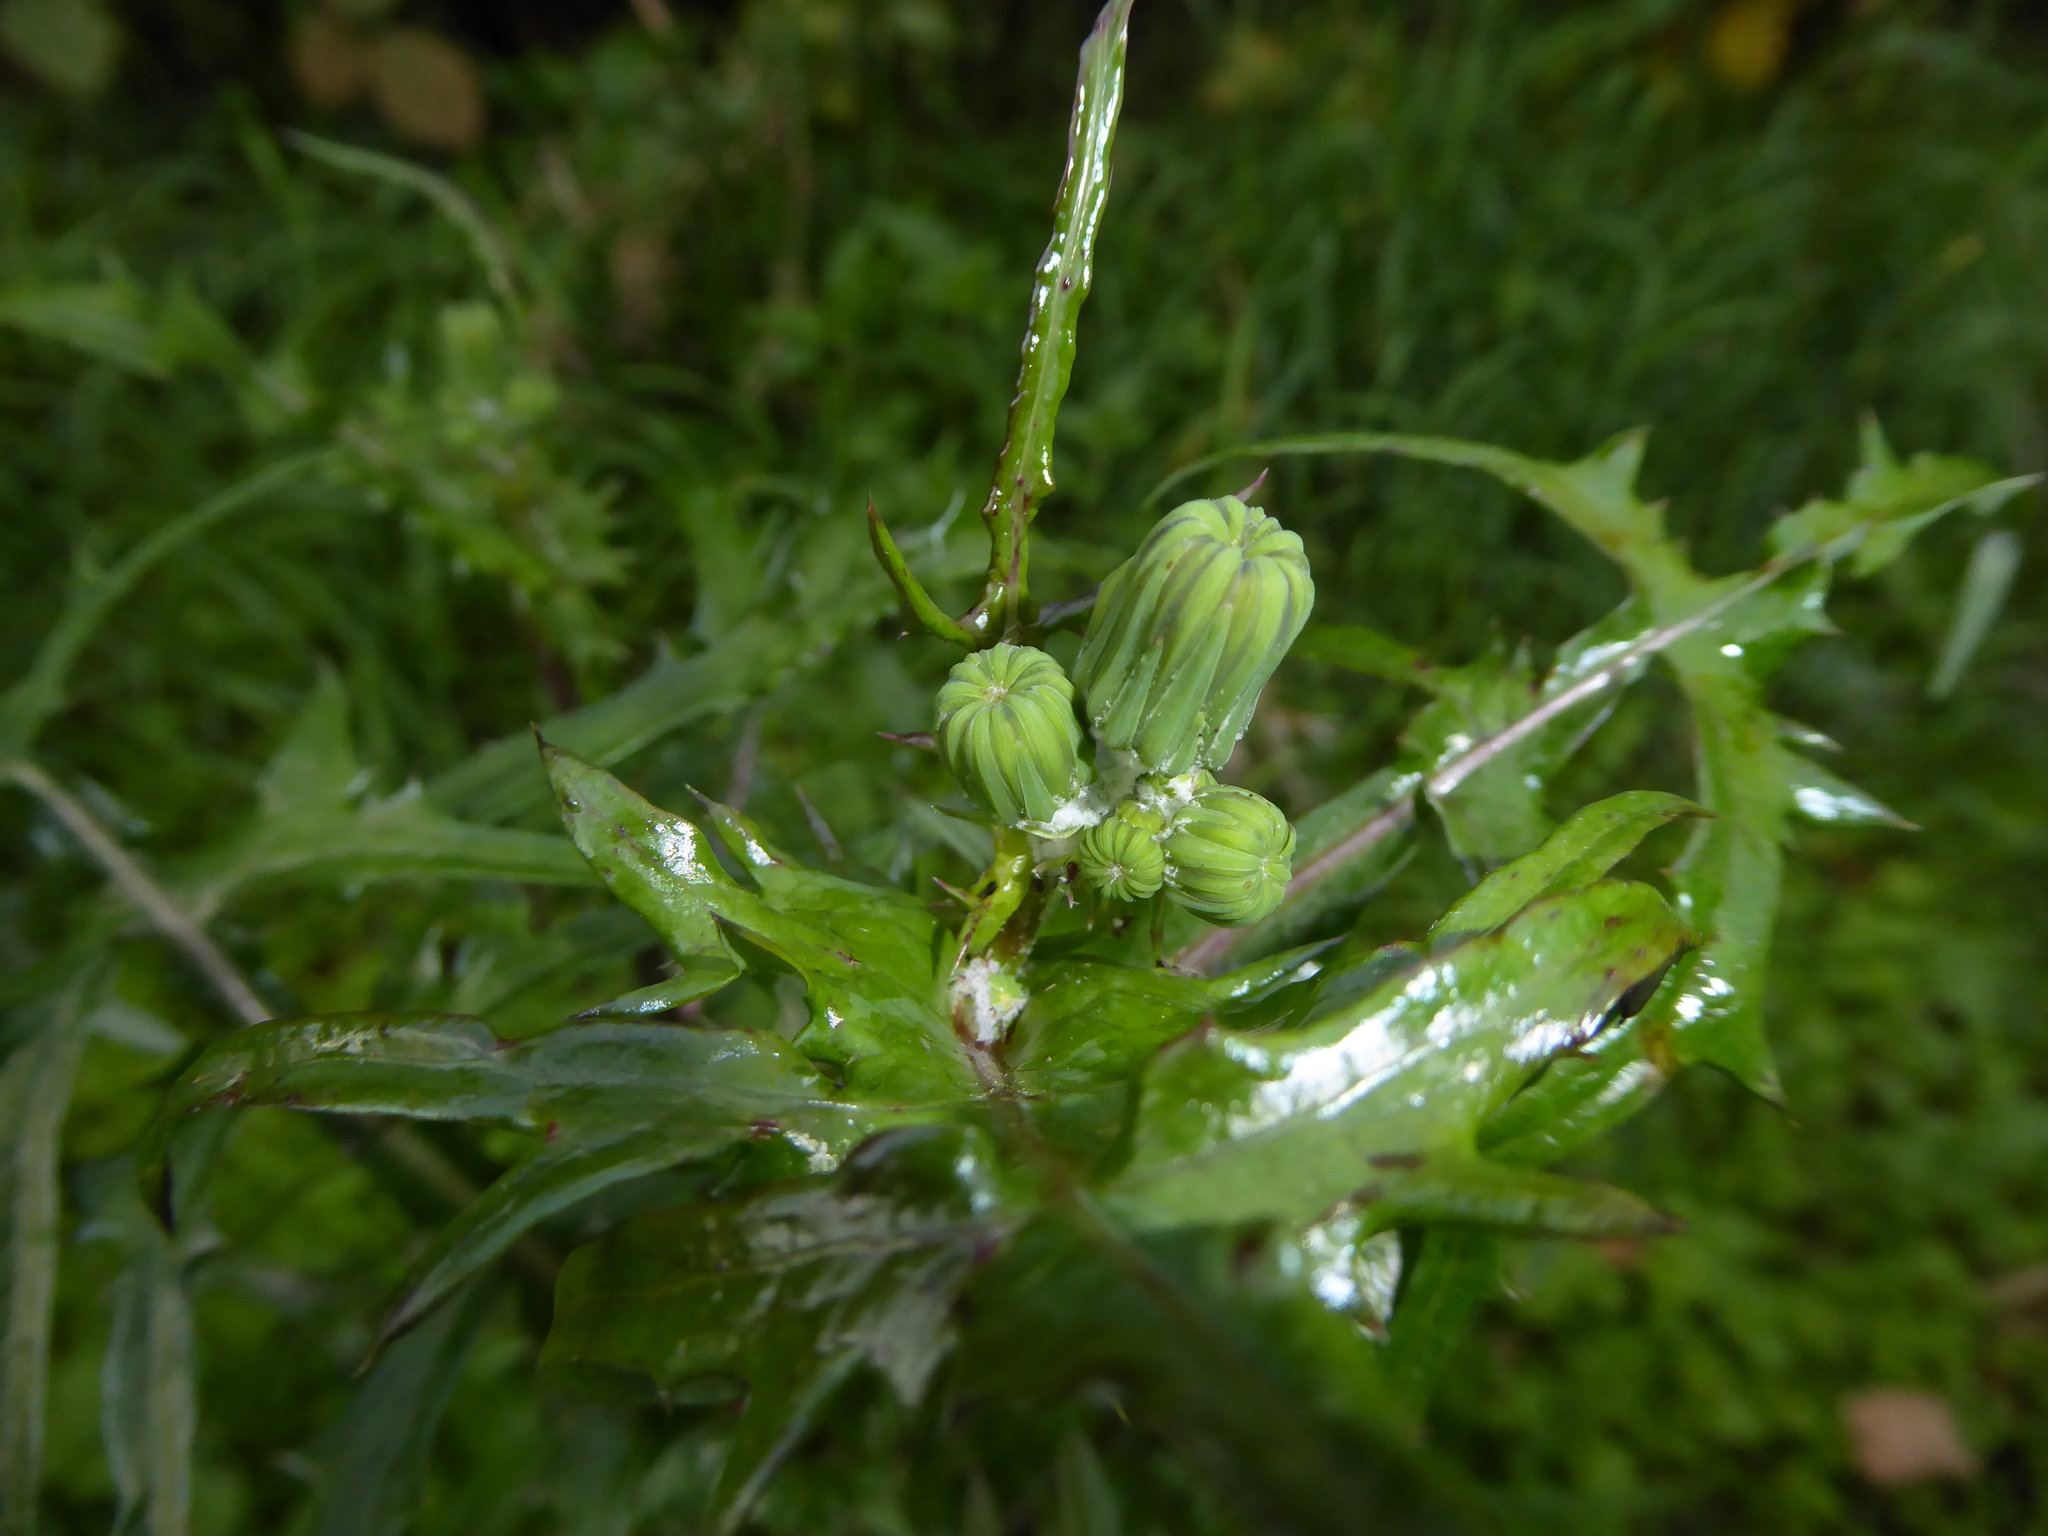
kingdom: Plantae
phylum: Tracheophyta
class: Magnoliopsida
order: Asterales
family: Asteraceae
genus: Sonchus
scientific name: Sonchus oleraceus
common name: Common sowthistle
